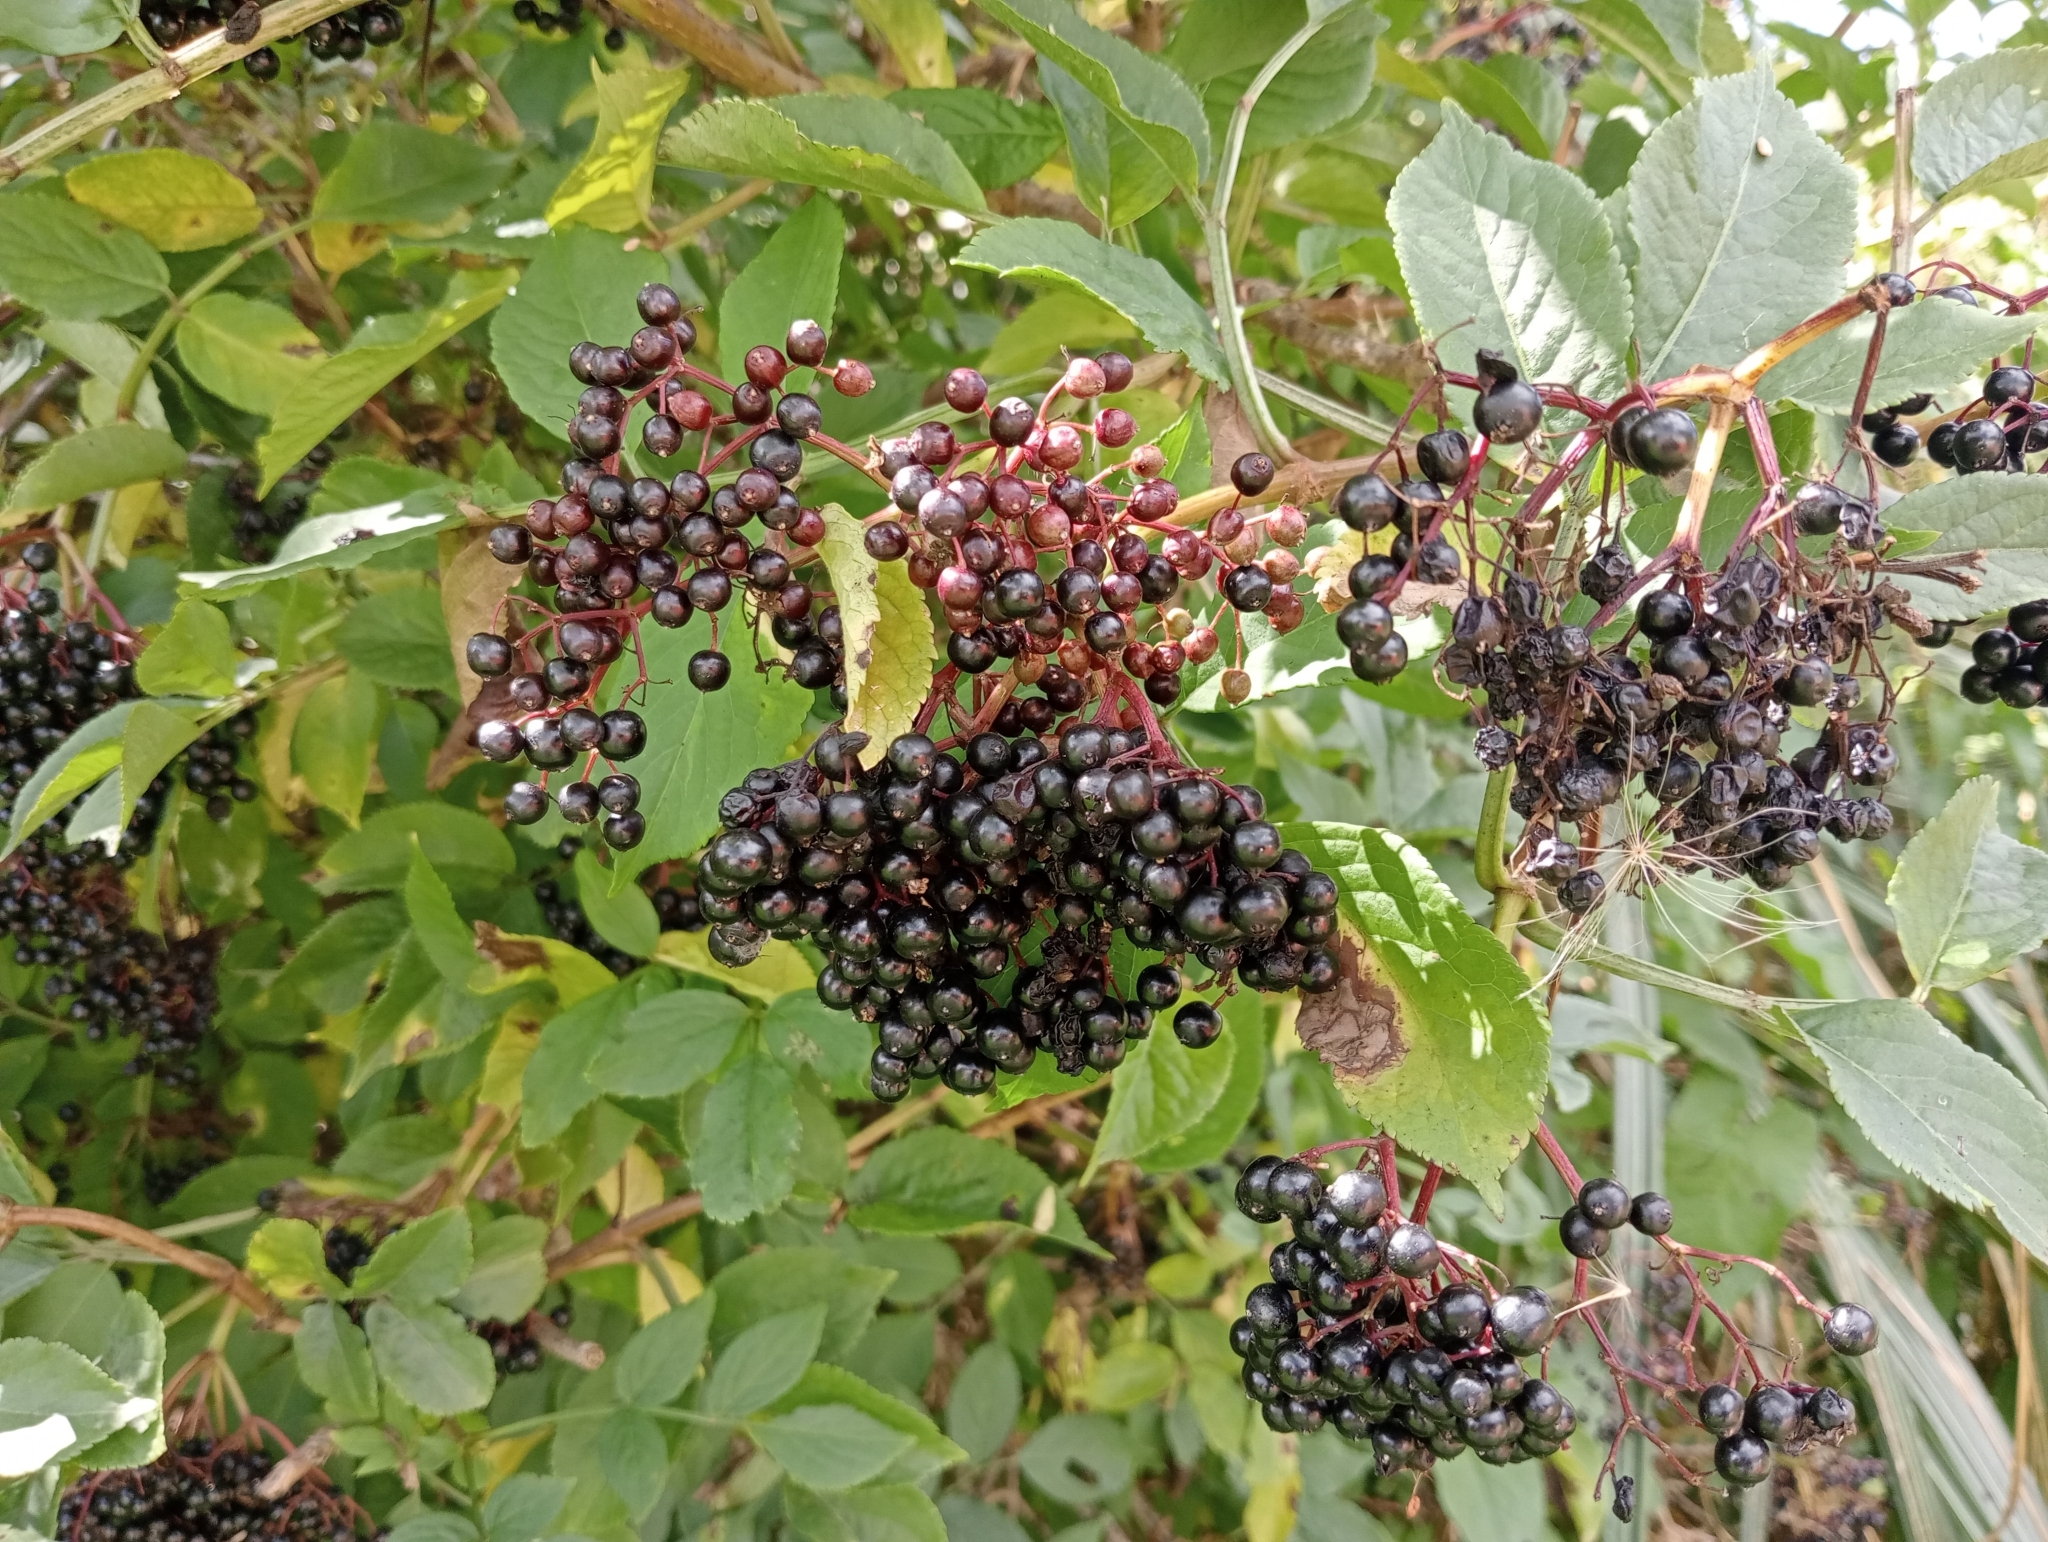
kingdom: Plantae
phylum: Tracheophyta
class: Magnoliopsida
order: Dipsacales
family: Viburnaceae
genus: Sambucus
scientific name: Sambucus nigra
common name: Elder
